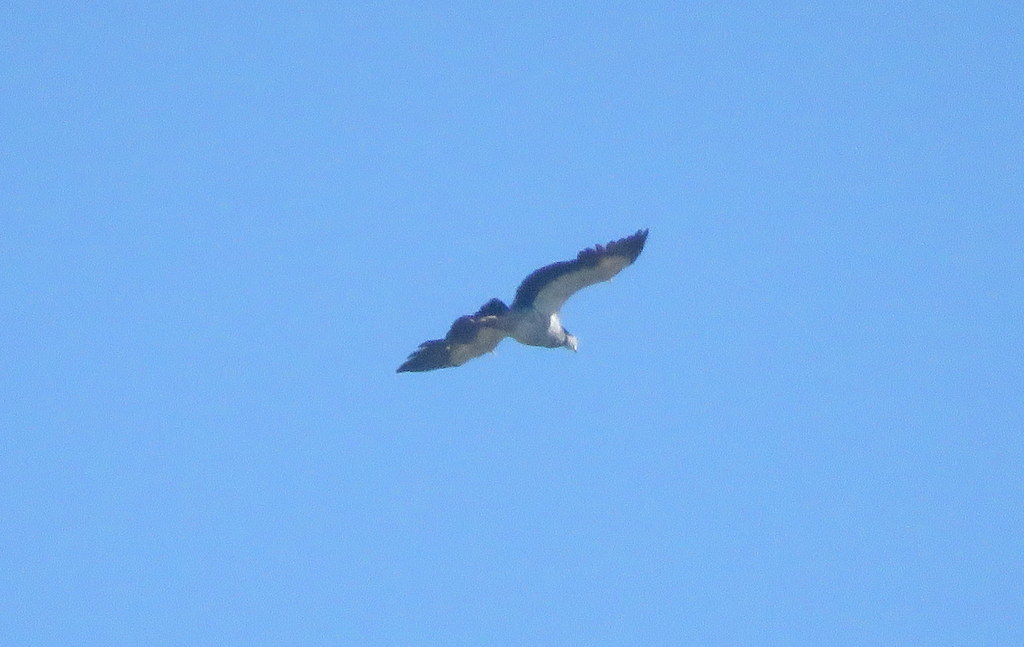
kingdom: Animalia
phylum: Chordata
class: Aves
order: Anseriformes
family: Anhimidae
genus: Chauna
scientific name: Chauna torquata
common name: Southern screamer
